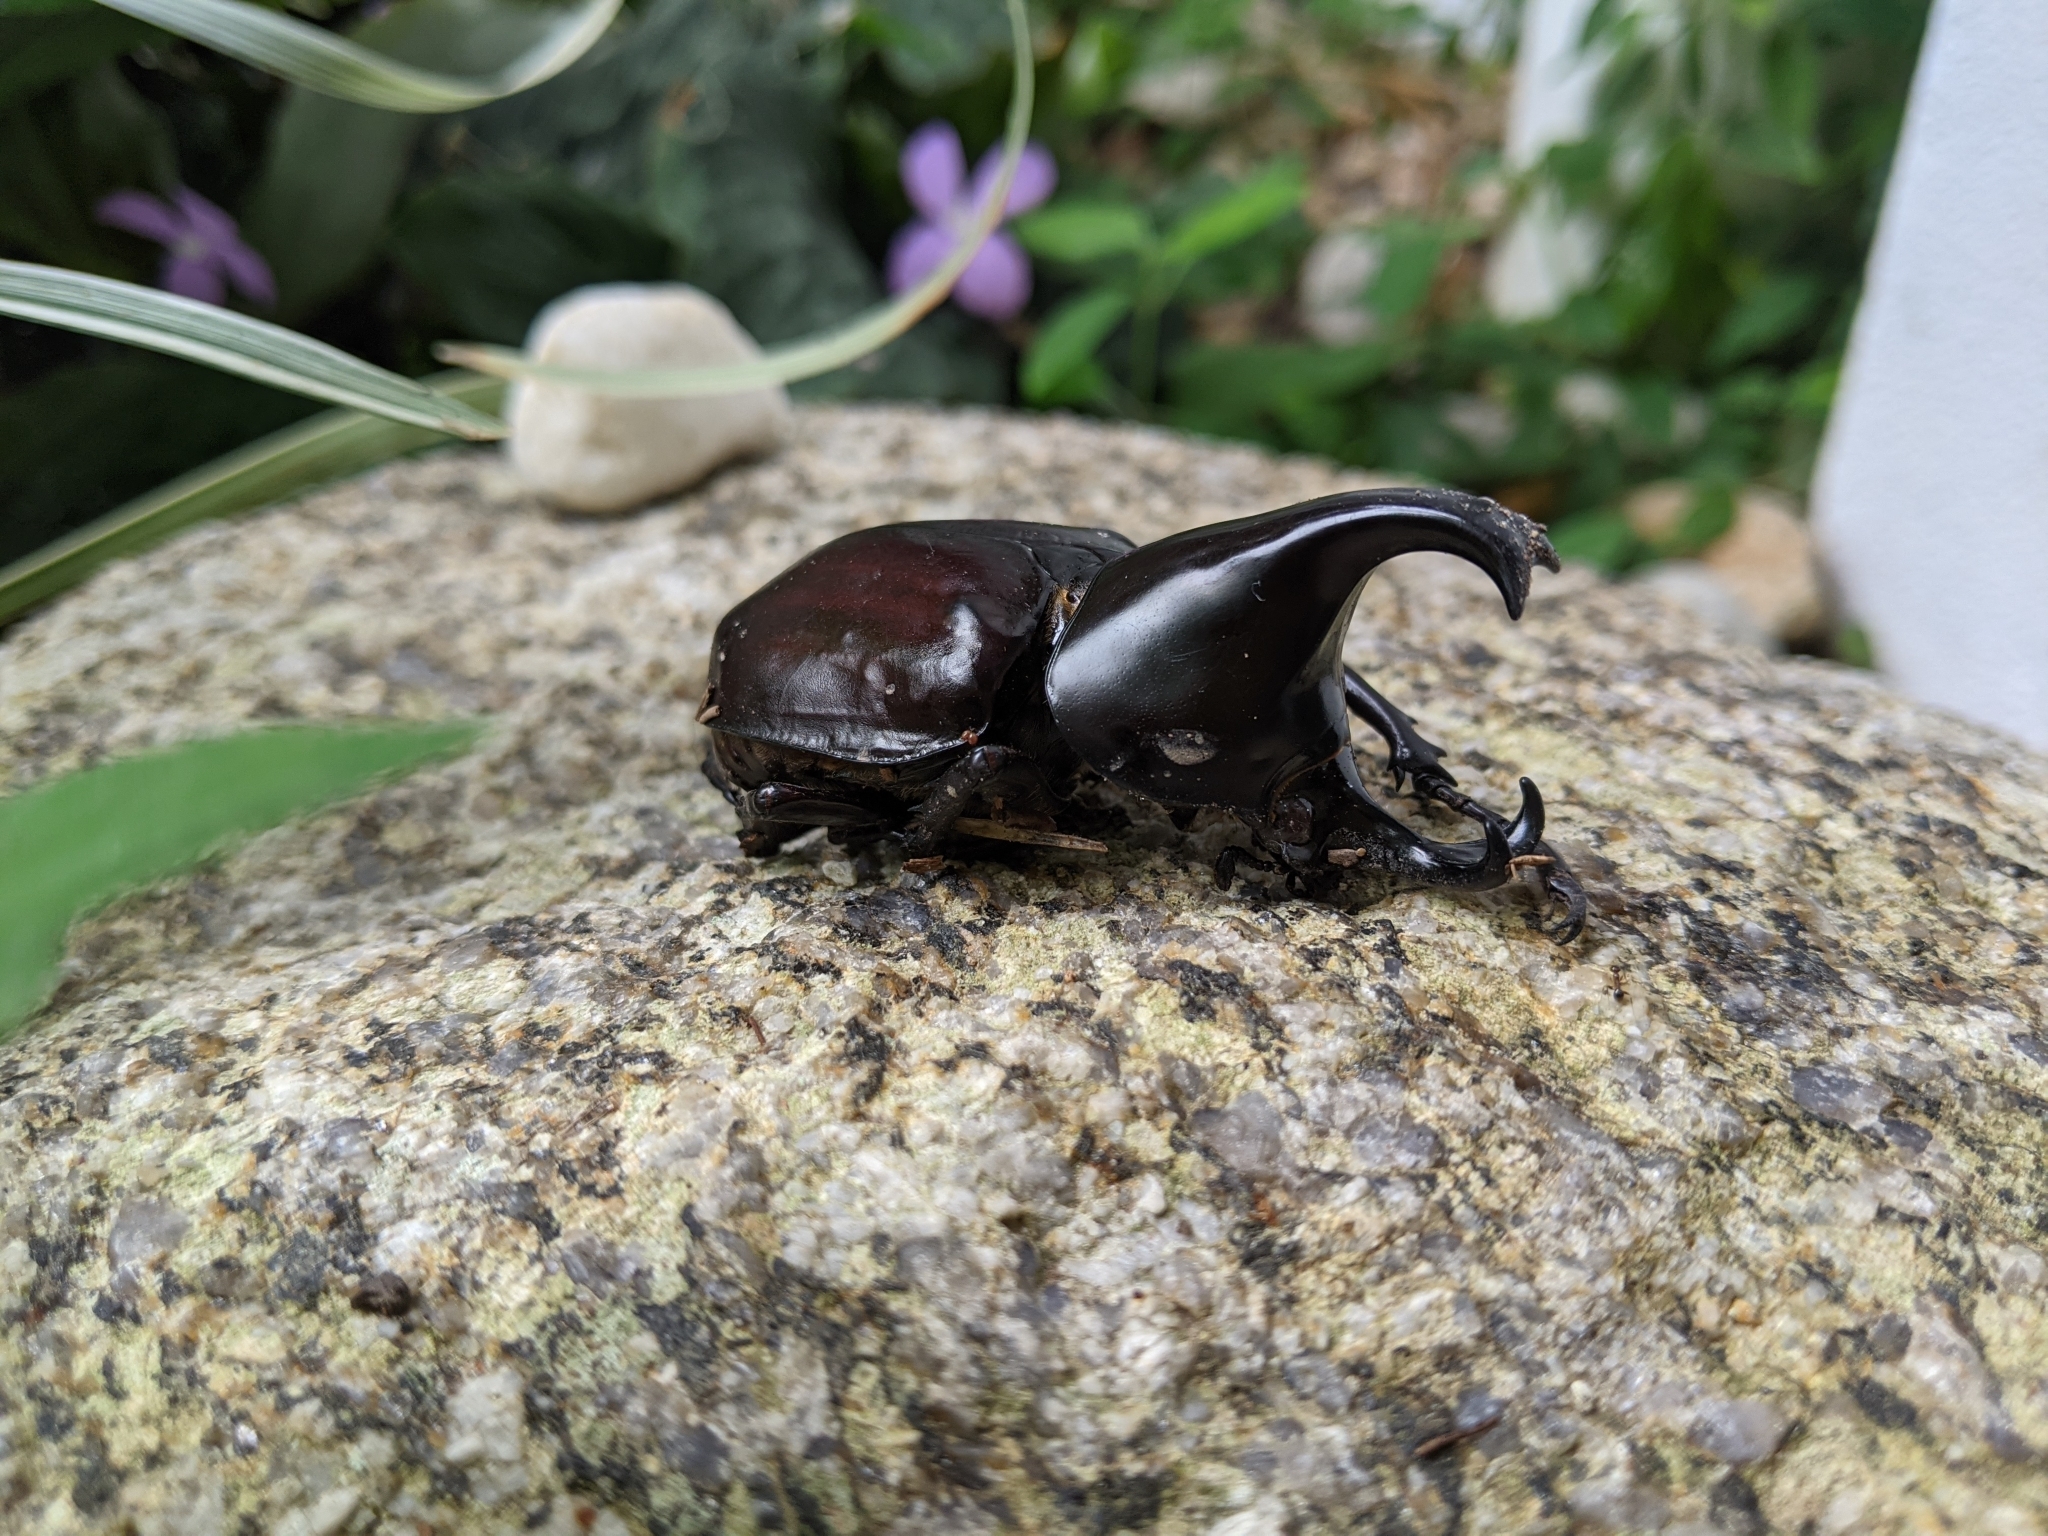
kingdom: Animalia
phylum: Arthropoda
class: Insecta
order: Coleoptera
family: Scarabaeidae
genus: Xylotrupes
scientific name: Xylotrupes australicus
